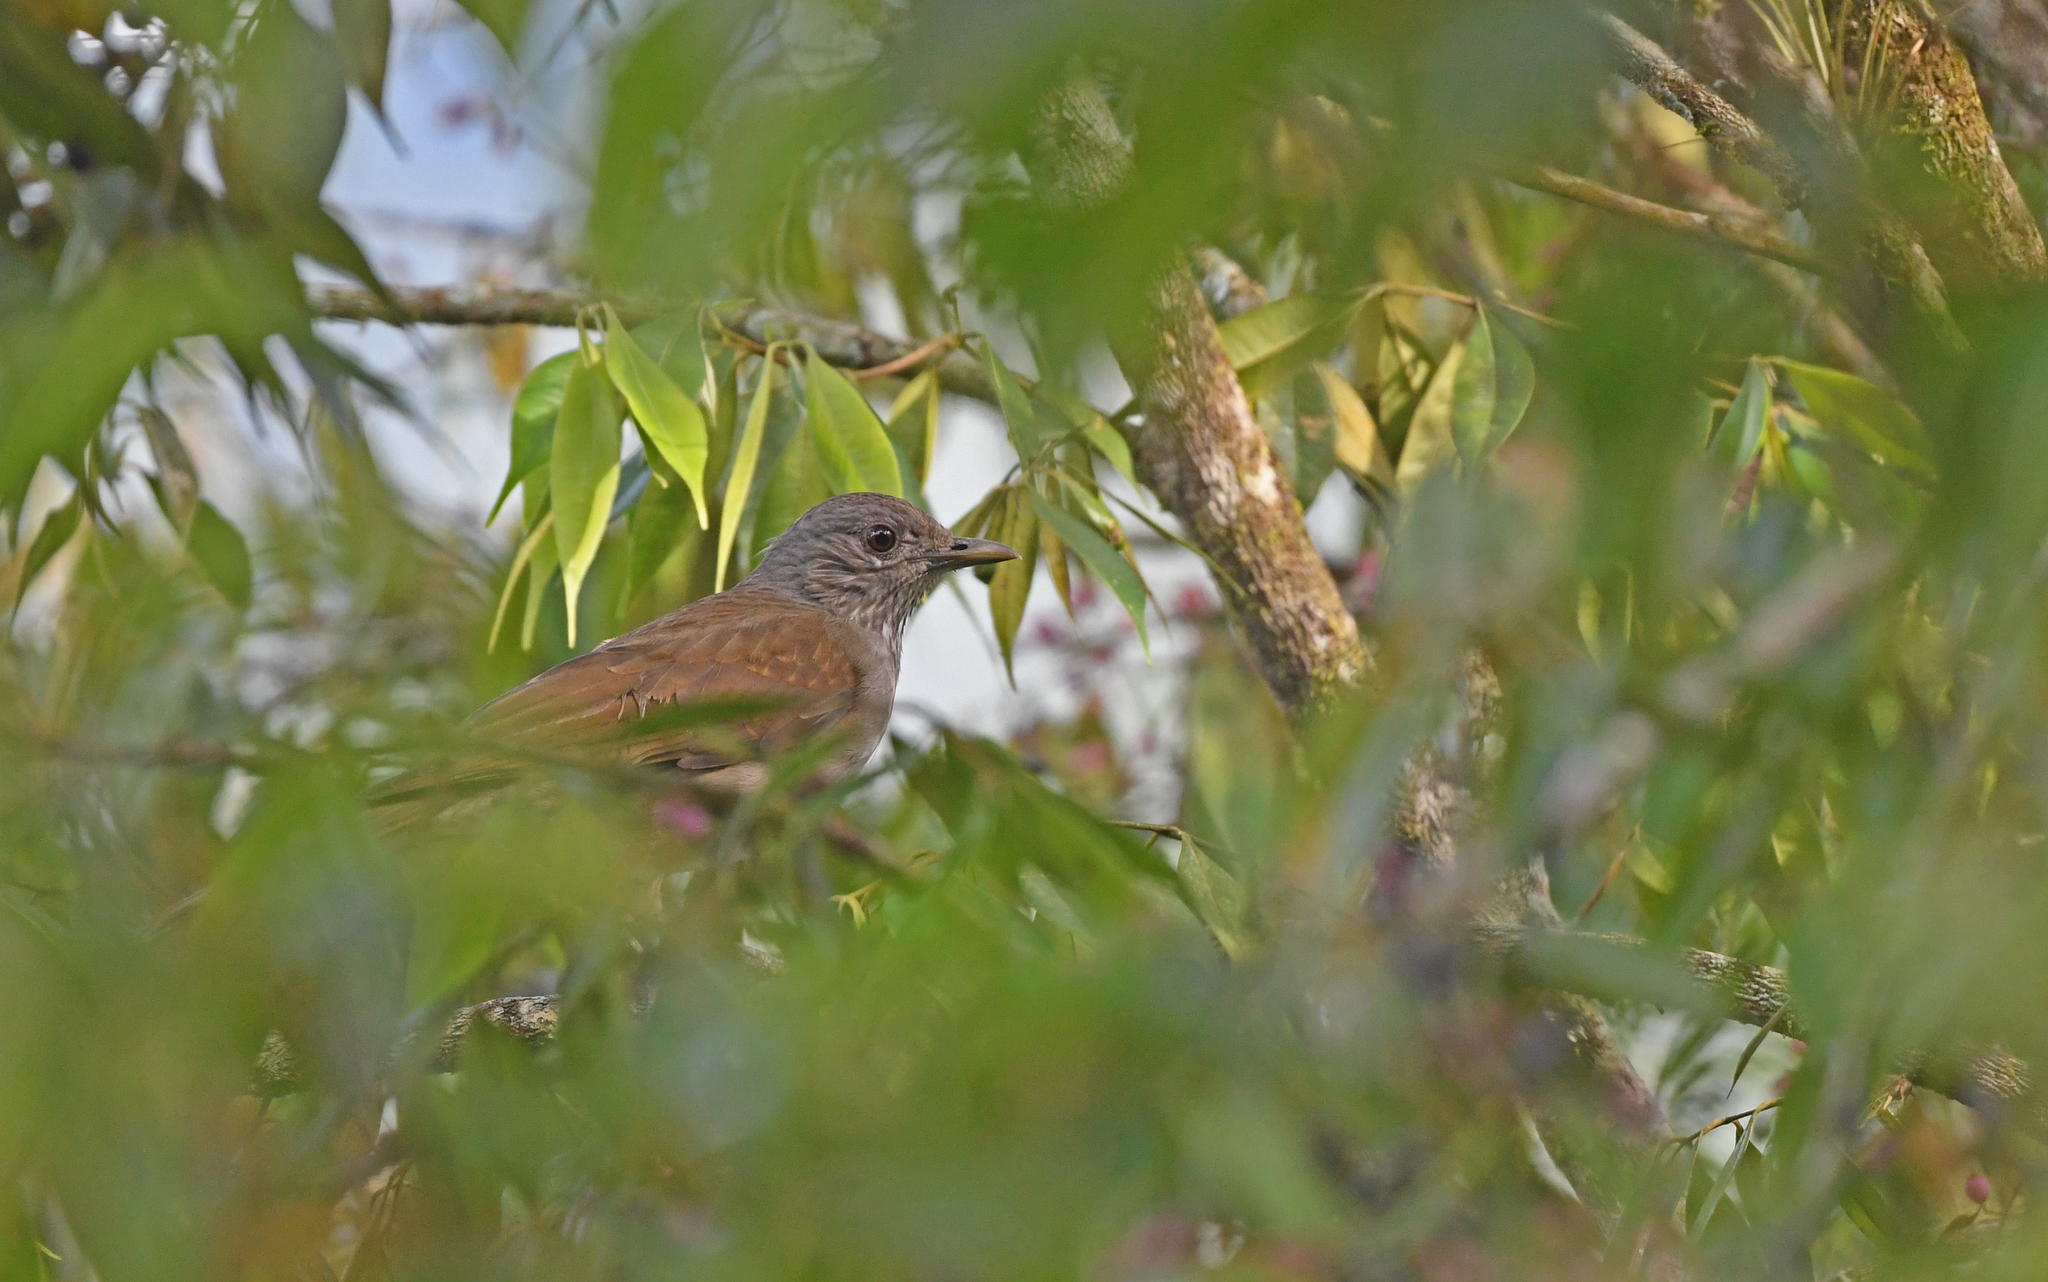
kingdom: Animalia
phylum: Chordata
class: Aves
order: Passeriformes
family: Turdidae
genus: Turdus
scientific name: Turdus leucomelas
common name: Pale-breasted thrush
